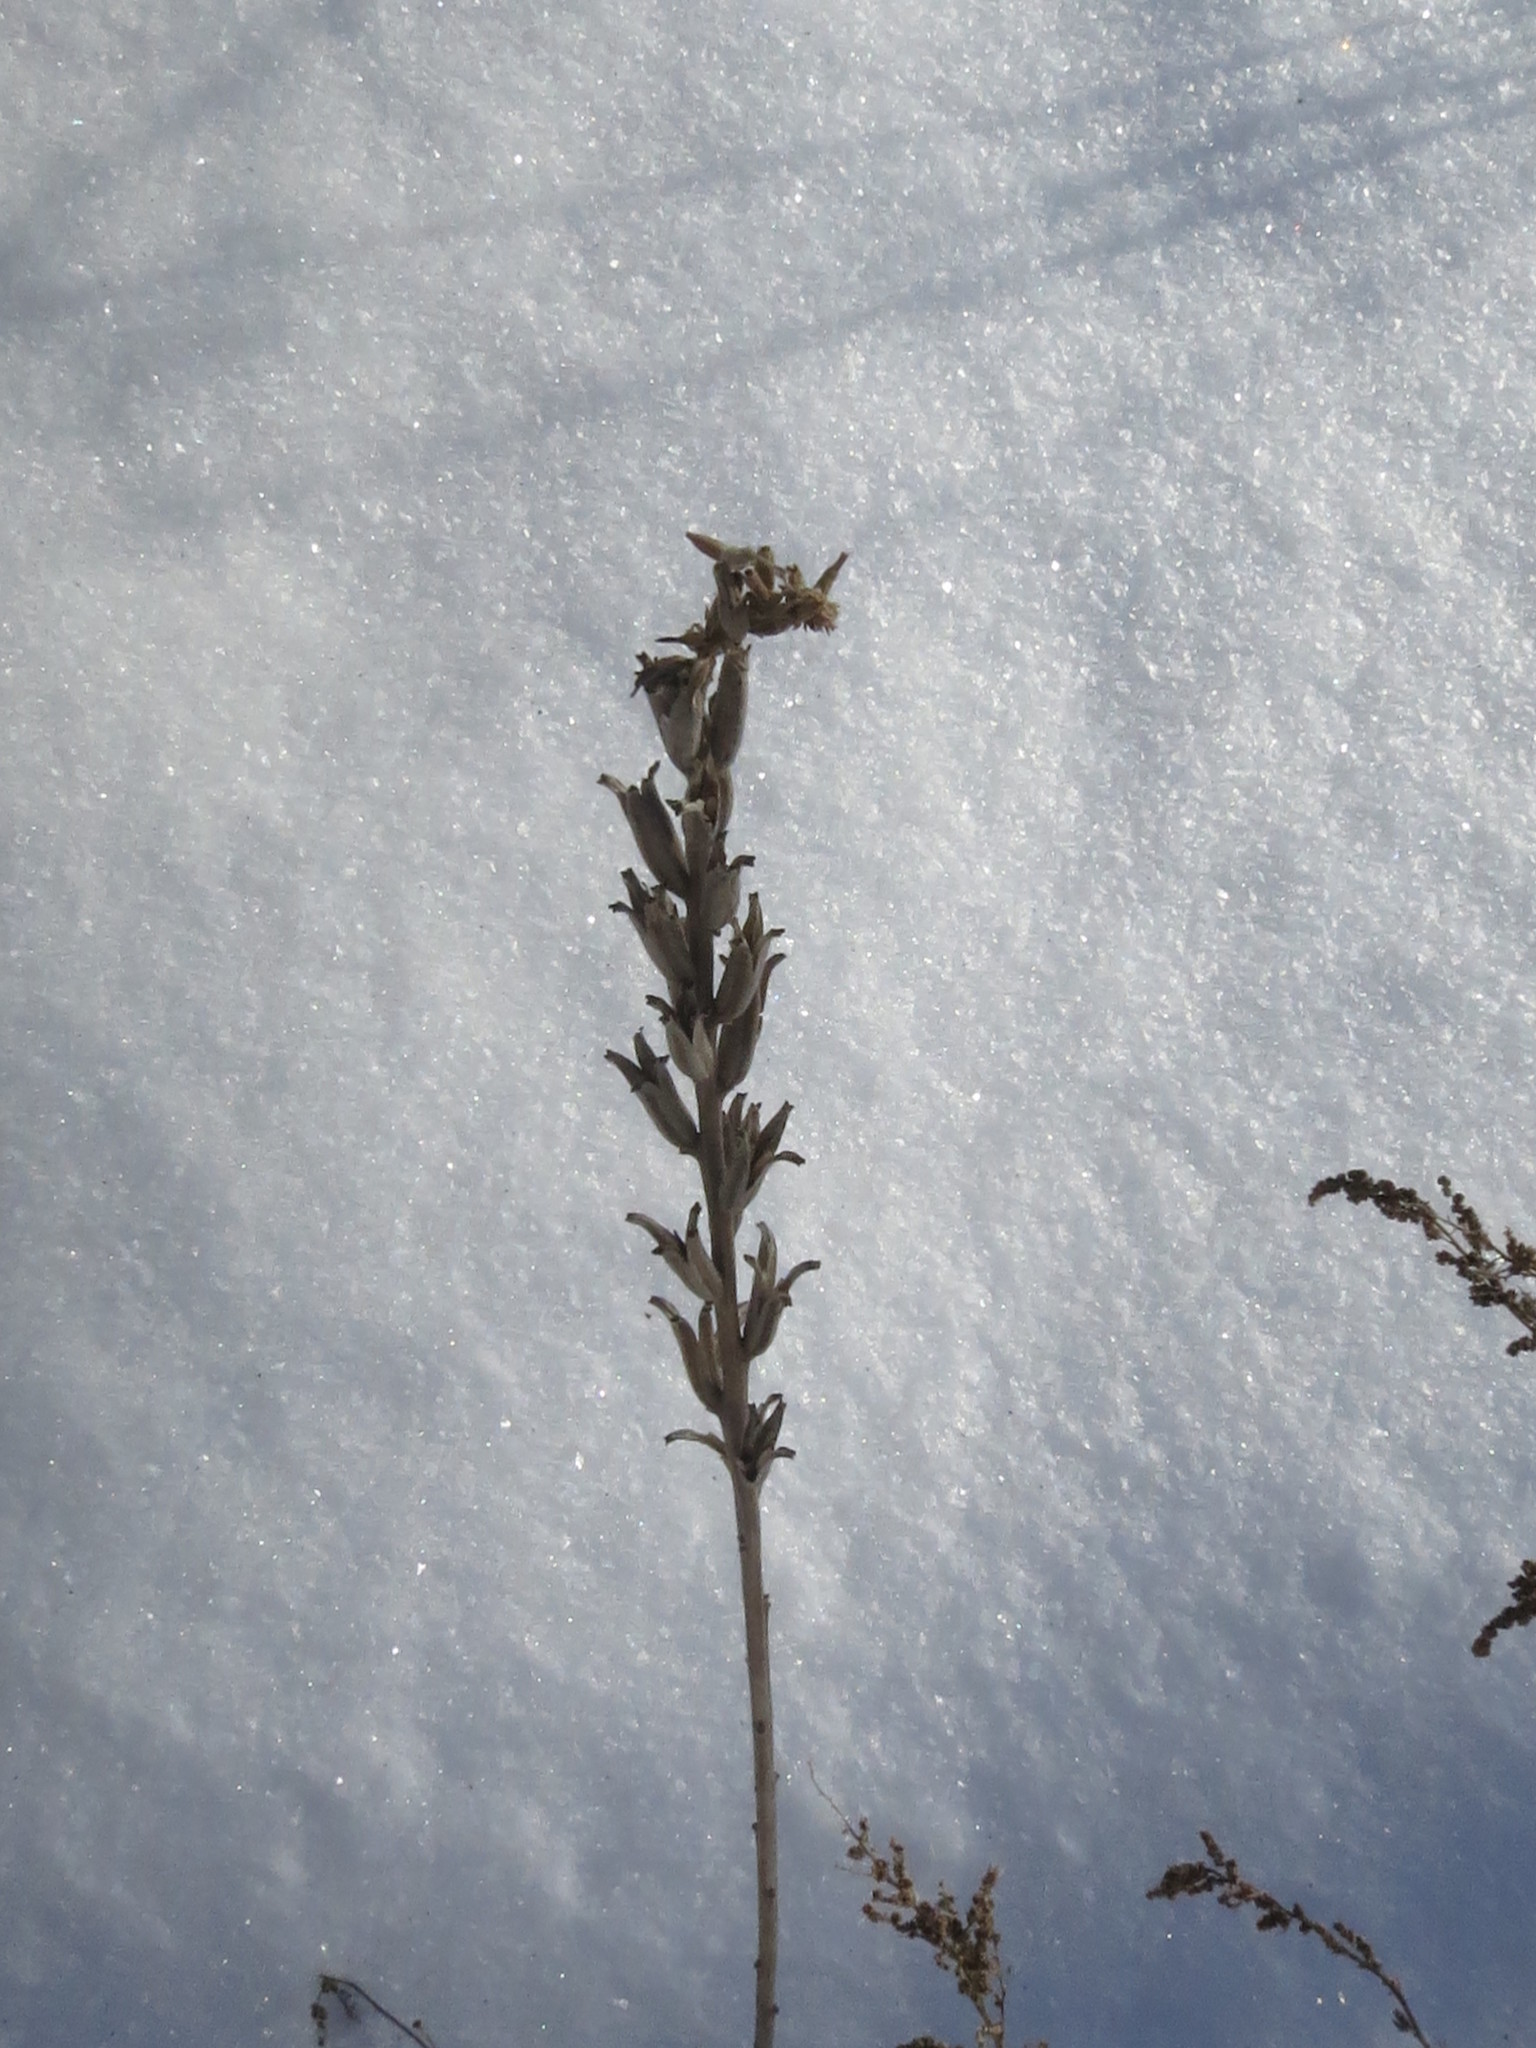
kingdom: Plantae
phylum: Tracheophyta
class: Magnoliopsida
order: Myrtales
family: Onagraceae
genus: Oenothera
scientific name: Oenothera
